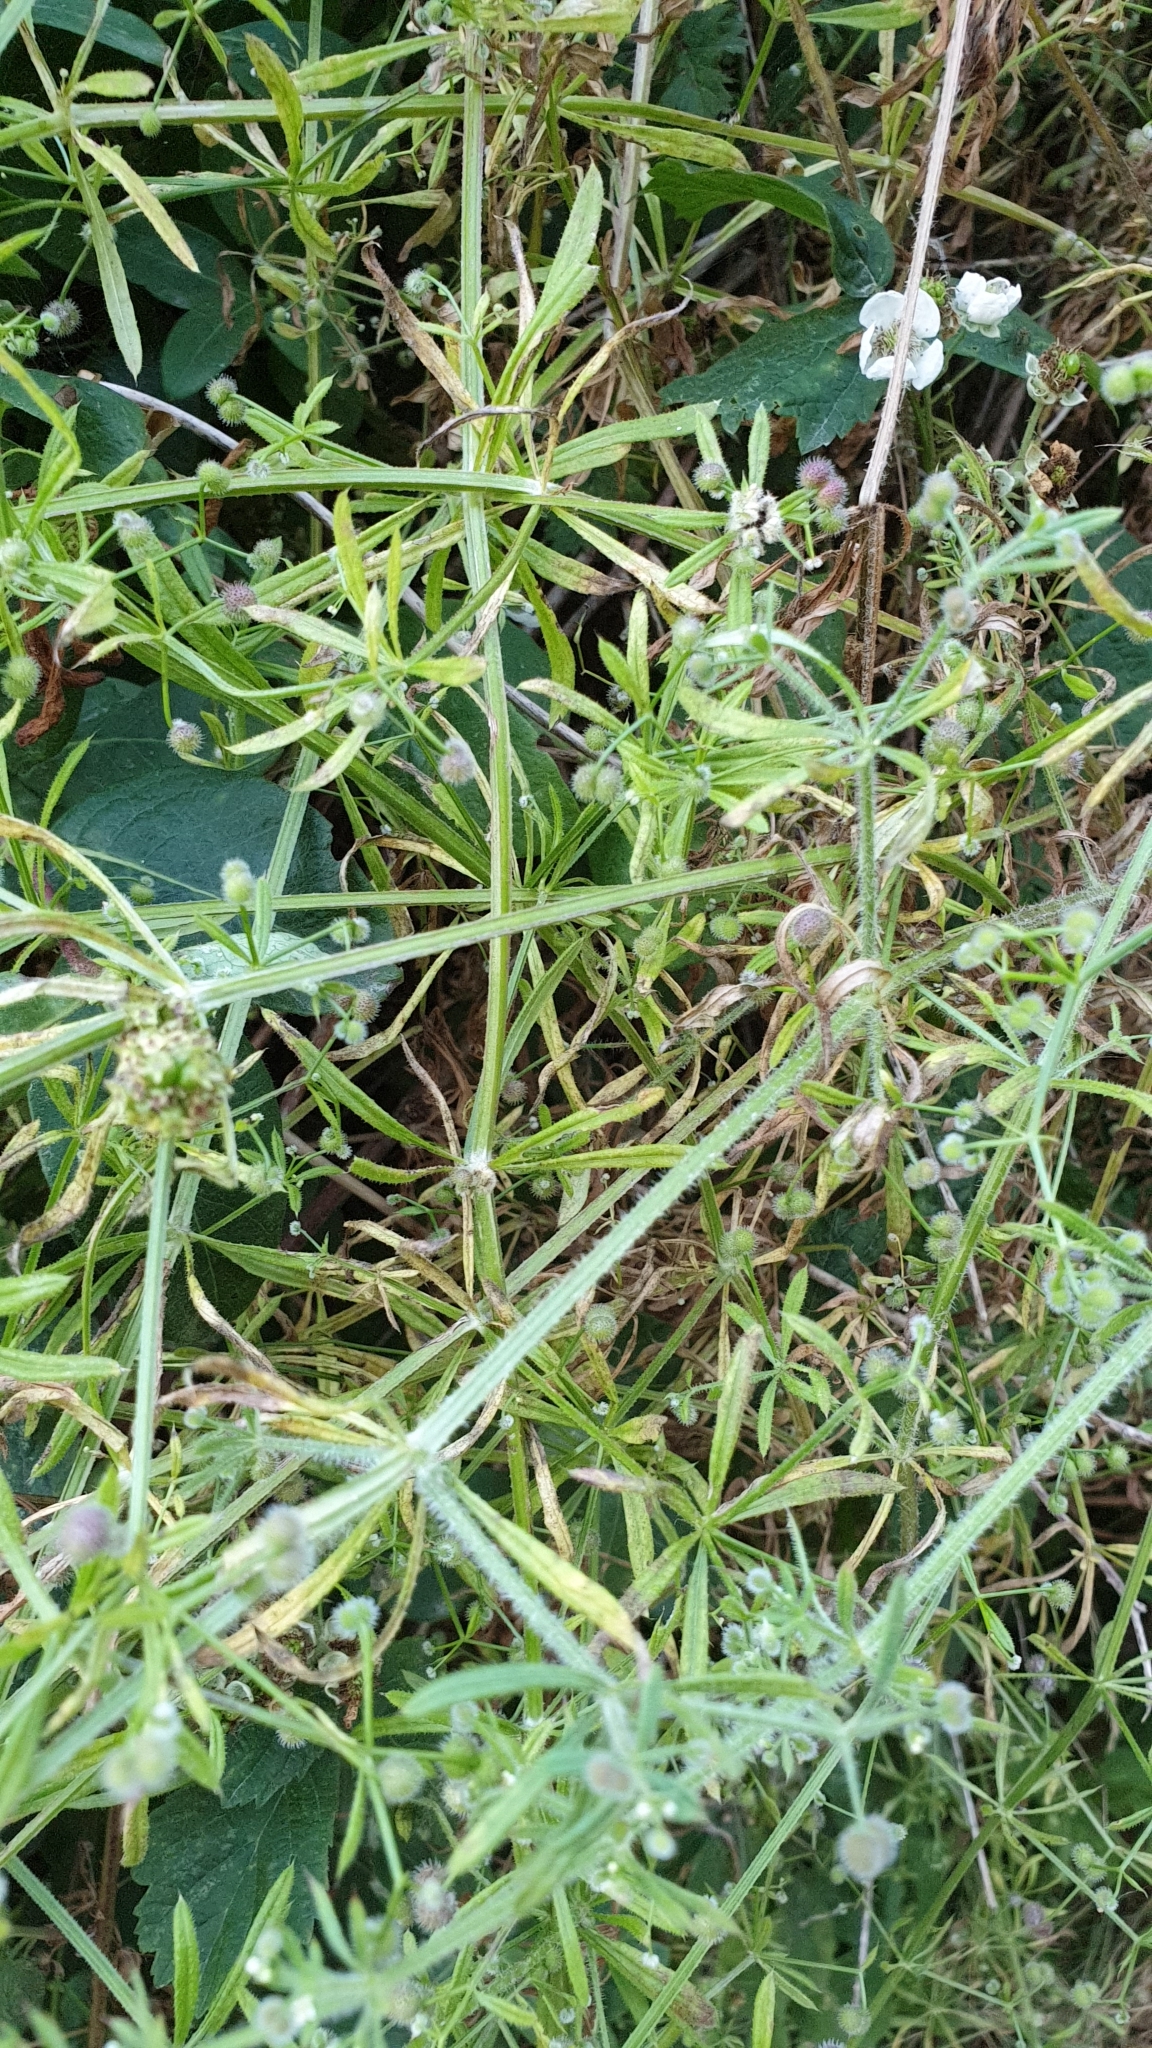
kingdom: Plantae
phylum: Tracheophyta
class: Magnoliopsida
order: Gentianales
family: Rubiaceae
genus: Galium
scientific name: Galium aparine
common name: Cleavers
